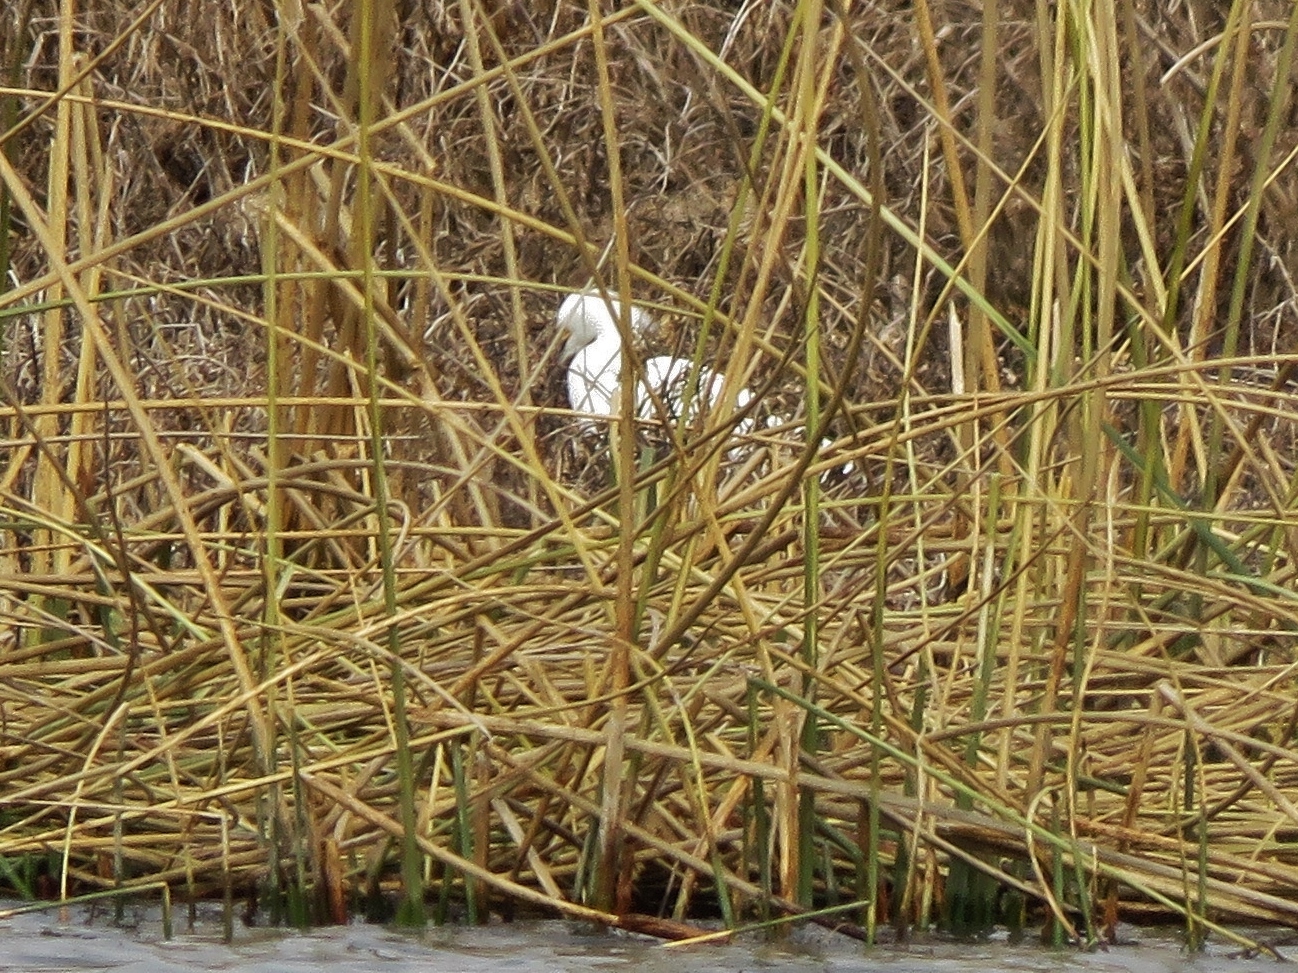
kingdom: Animalia
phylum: Chordata
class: Aves
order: Pelecaniformes
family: Ardeidae
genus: Egretta
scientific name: Egretta thula
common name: Snowy egret
